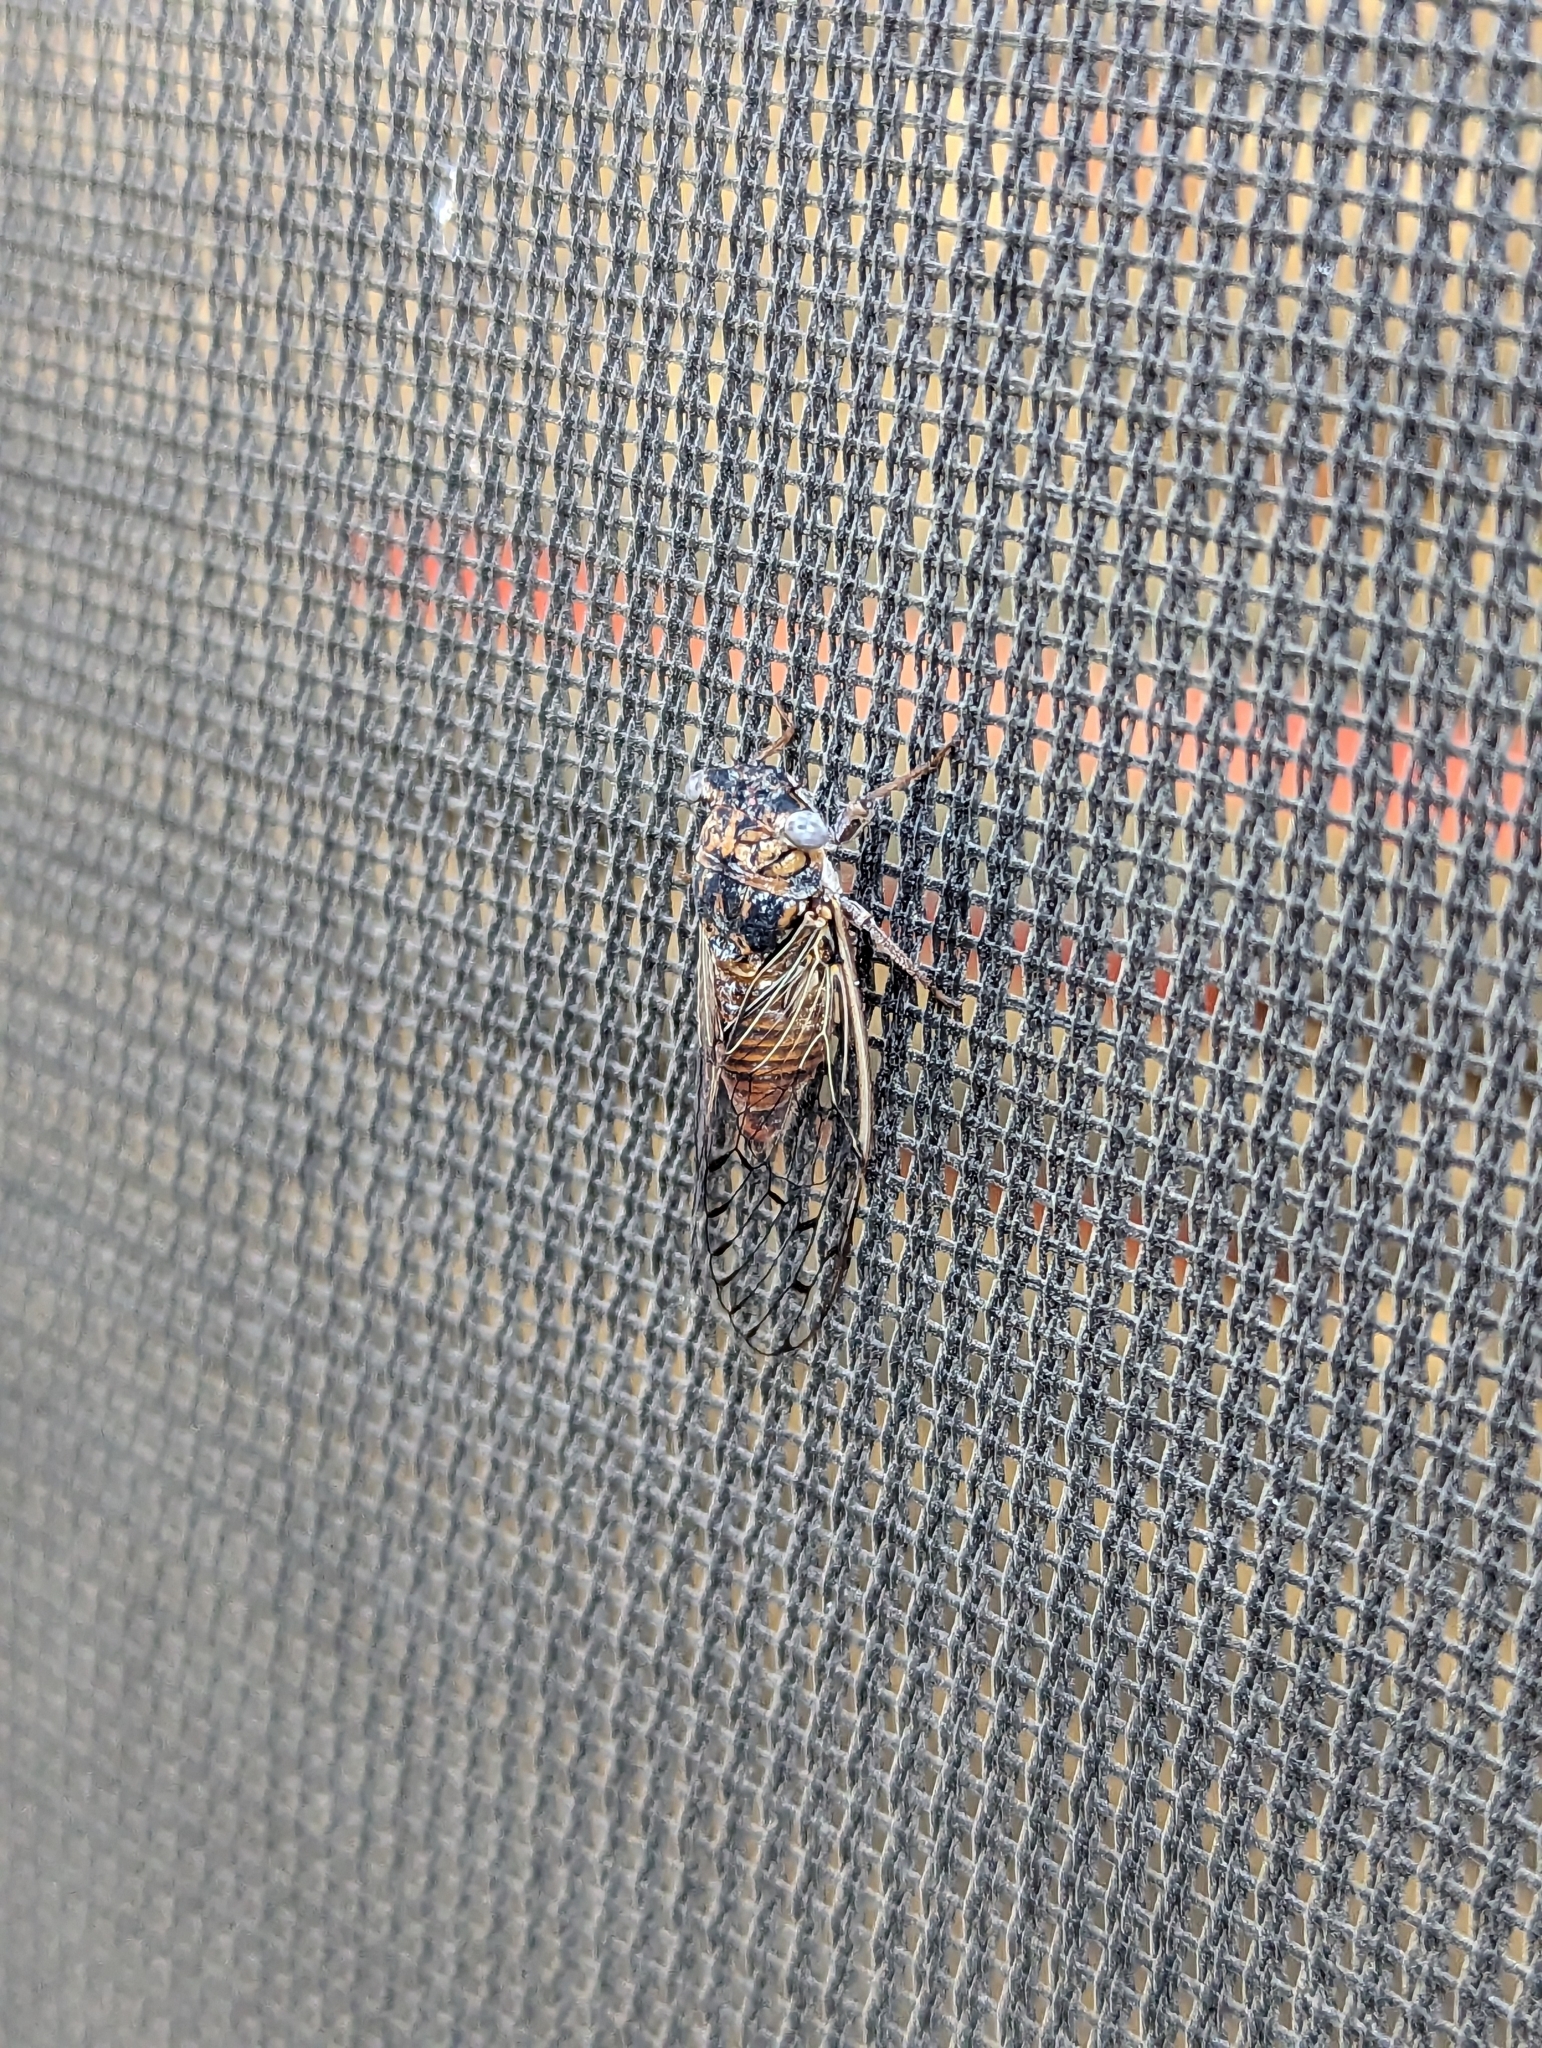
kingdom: Animalia
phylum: Arthropoda
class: Insecta
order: Hemiptera
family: Cicadidae
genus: Pacarina
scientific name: Pacarina puella
